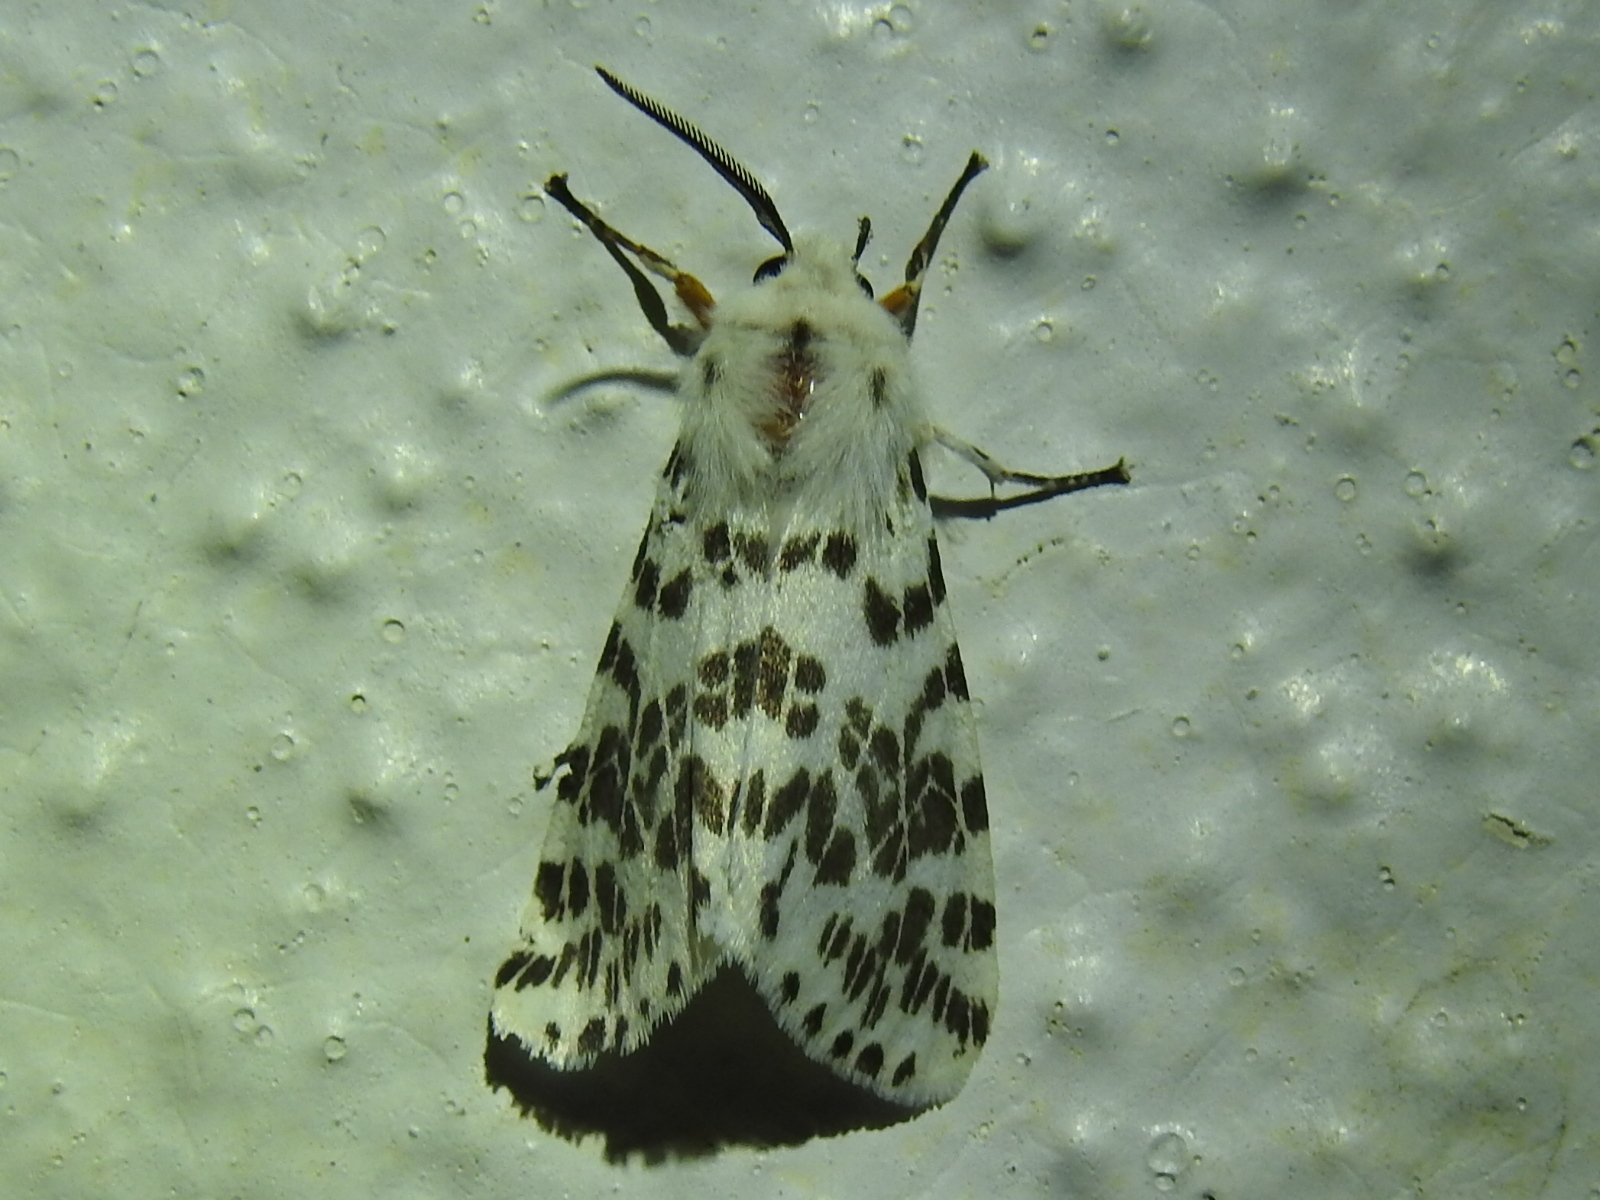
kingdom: Animalia
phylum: Arthropoda
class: Insecta
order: Lepidoptera
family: Erebidae
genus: Hyphantria
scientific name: Hyphantria cunea
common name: American white moth
